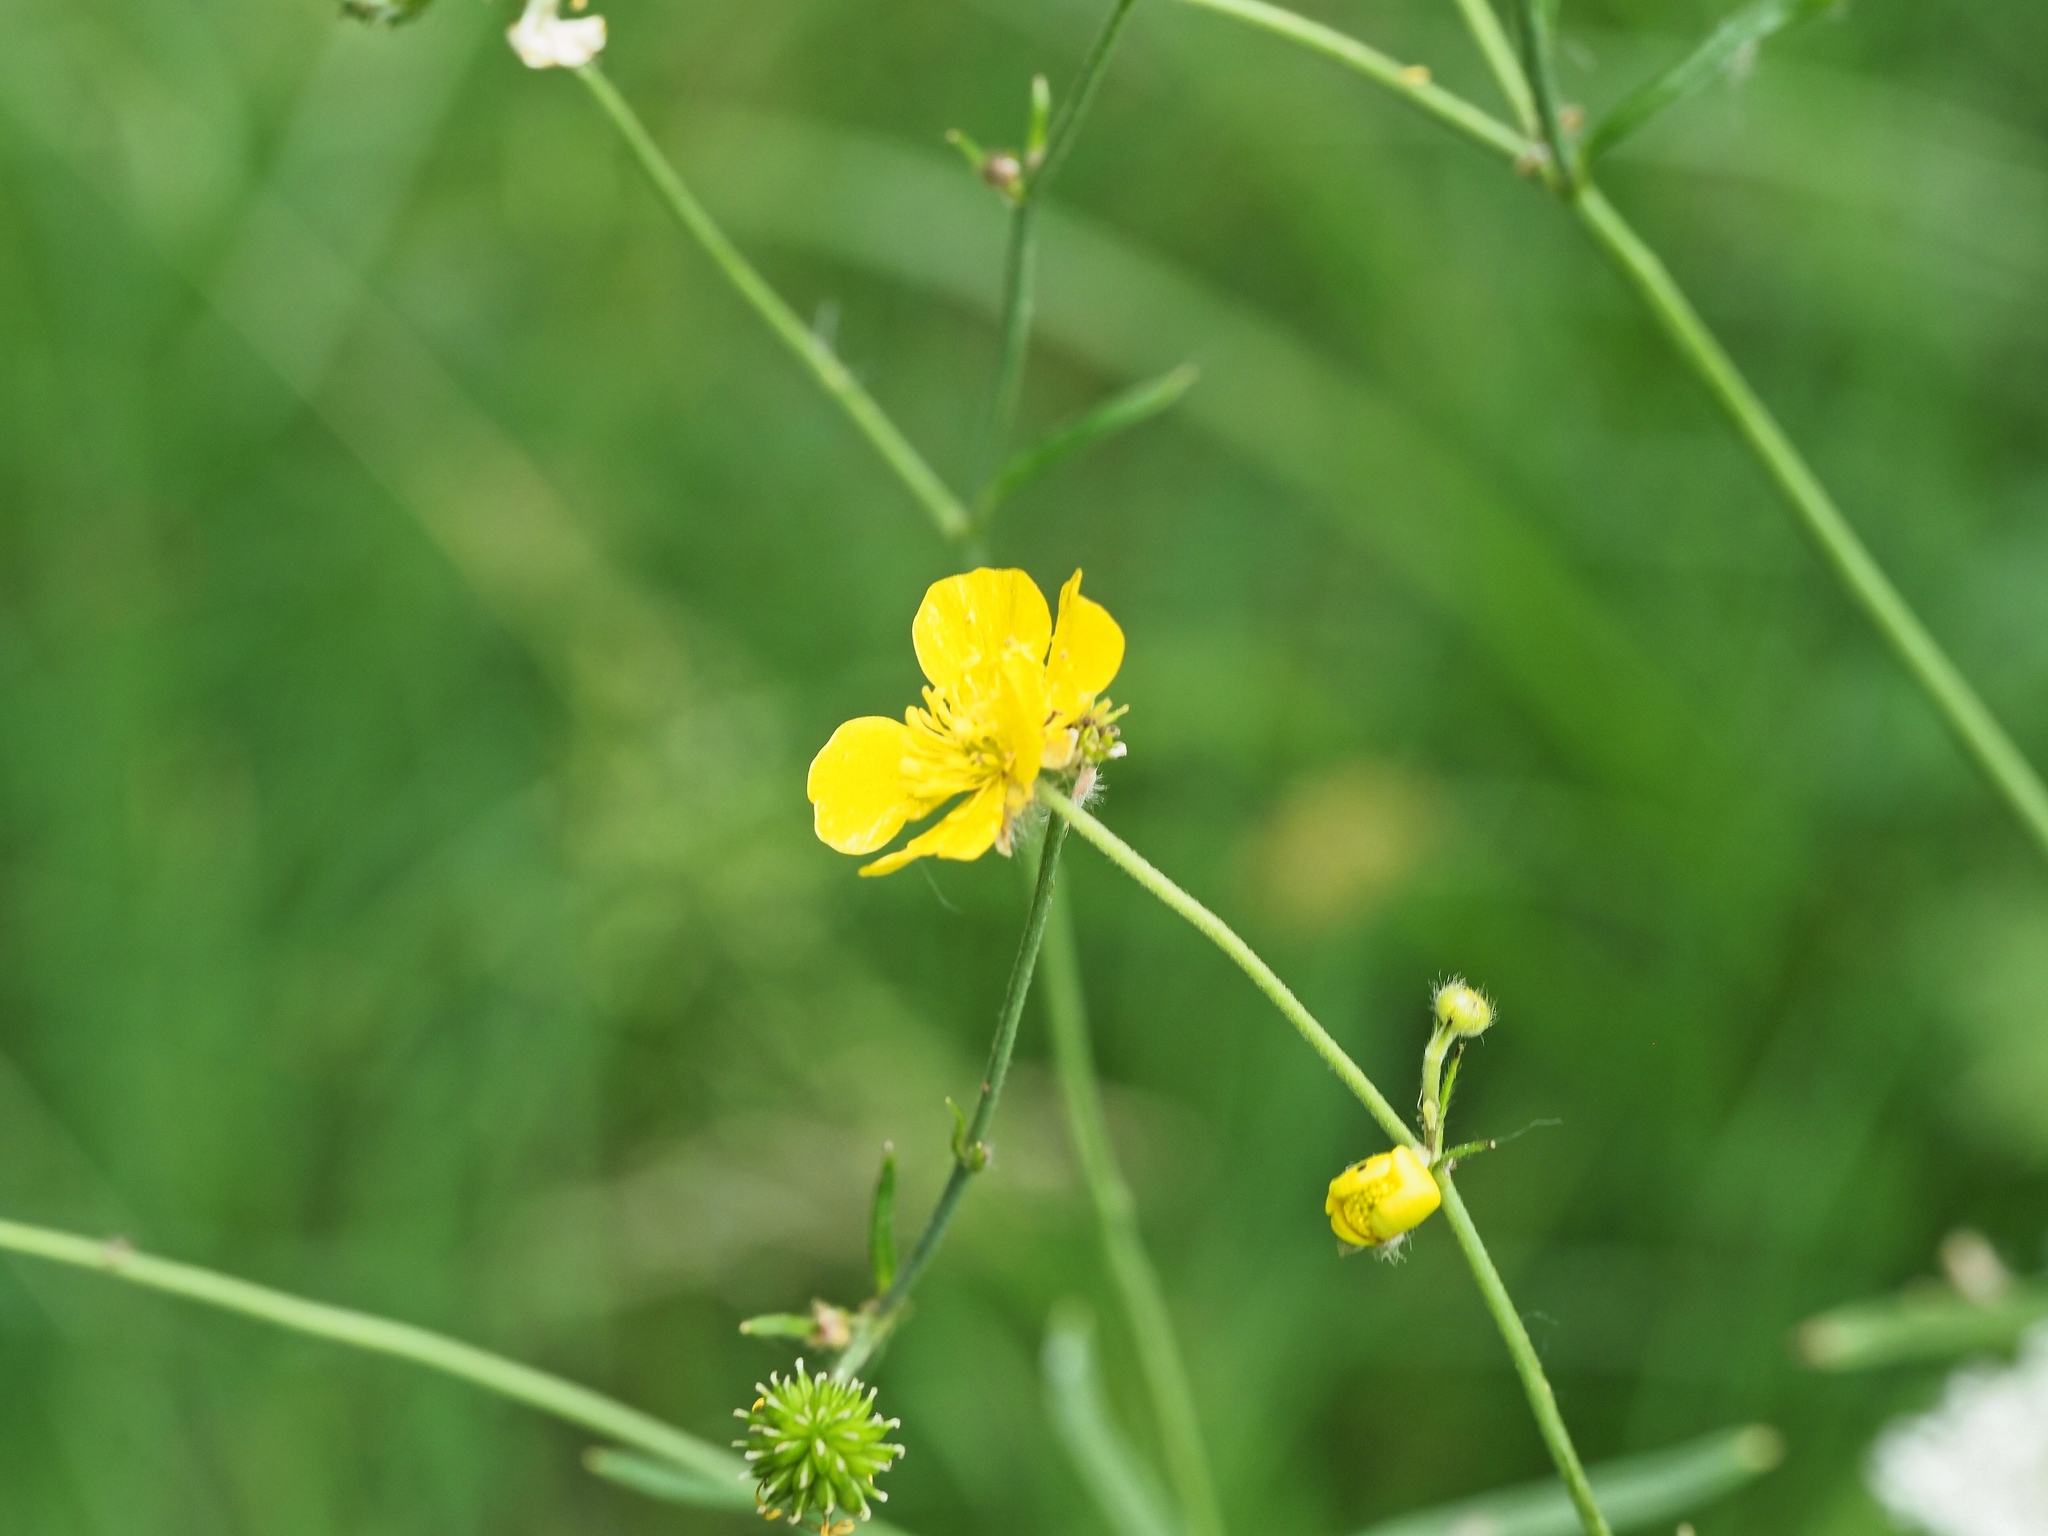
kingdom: Plantae
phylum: Tracheophyta
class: Magnoliopsida
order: Ranunculales
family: Ranunculaceae
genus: Ranunculus
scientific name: Ranunculus acris
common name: Meadow buttercup
